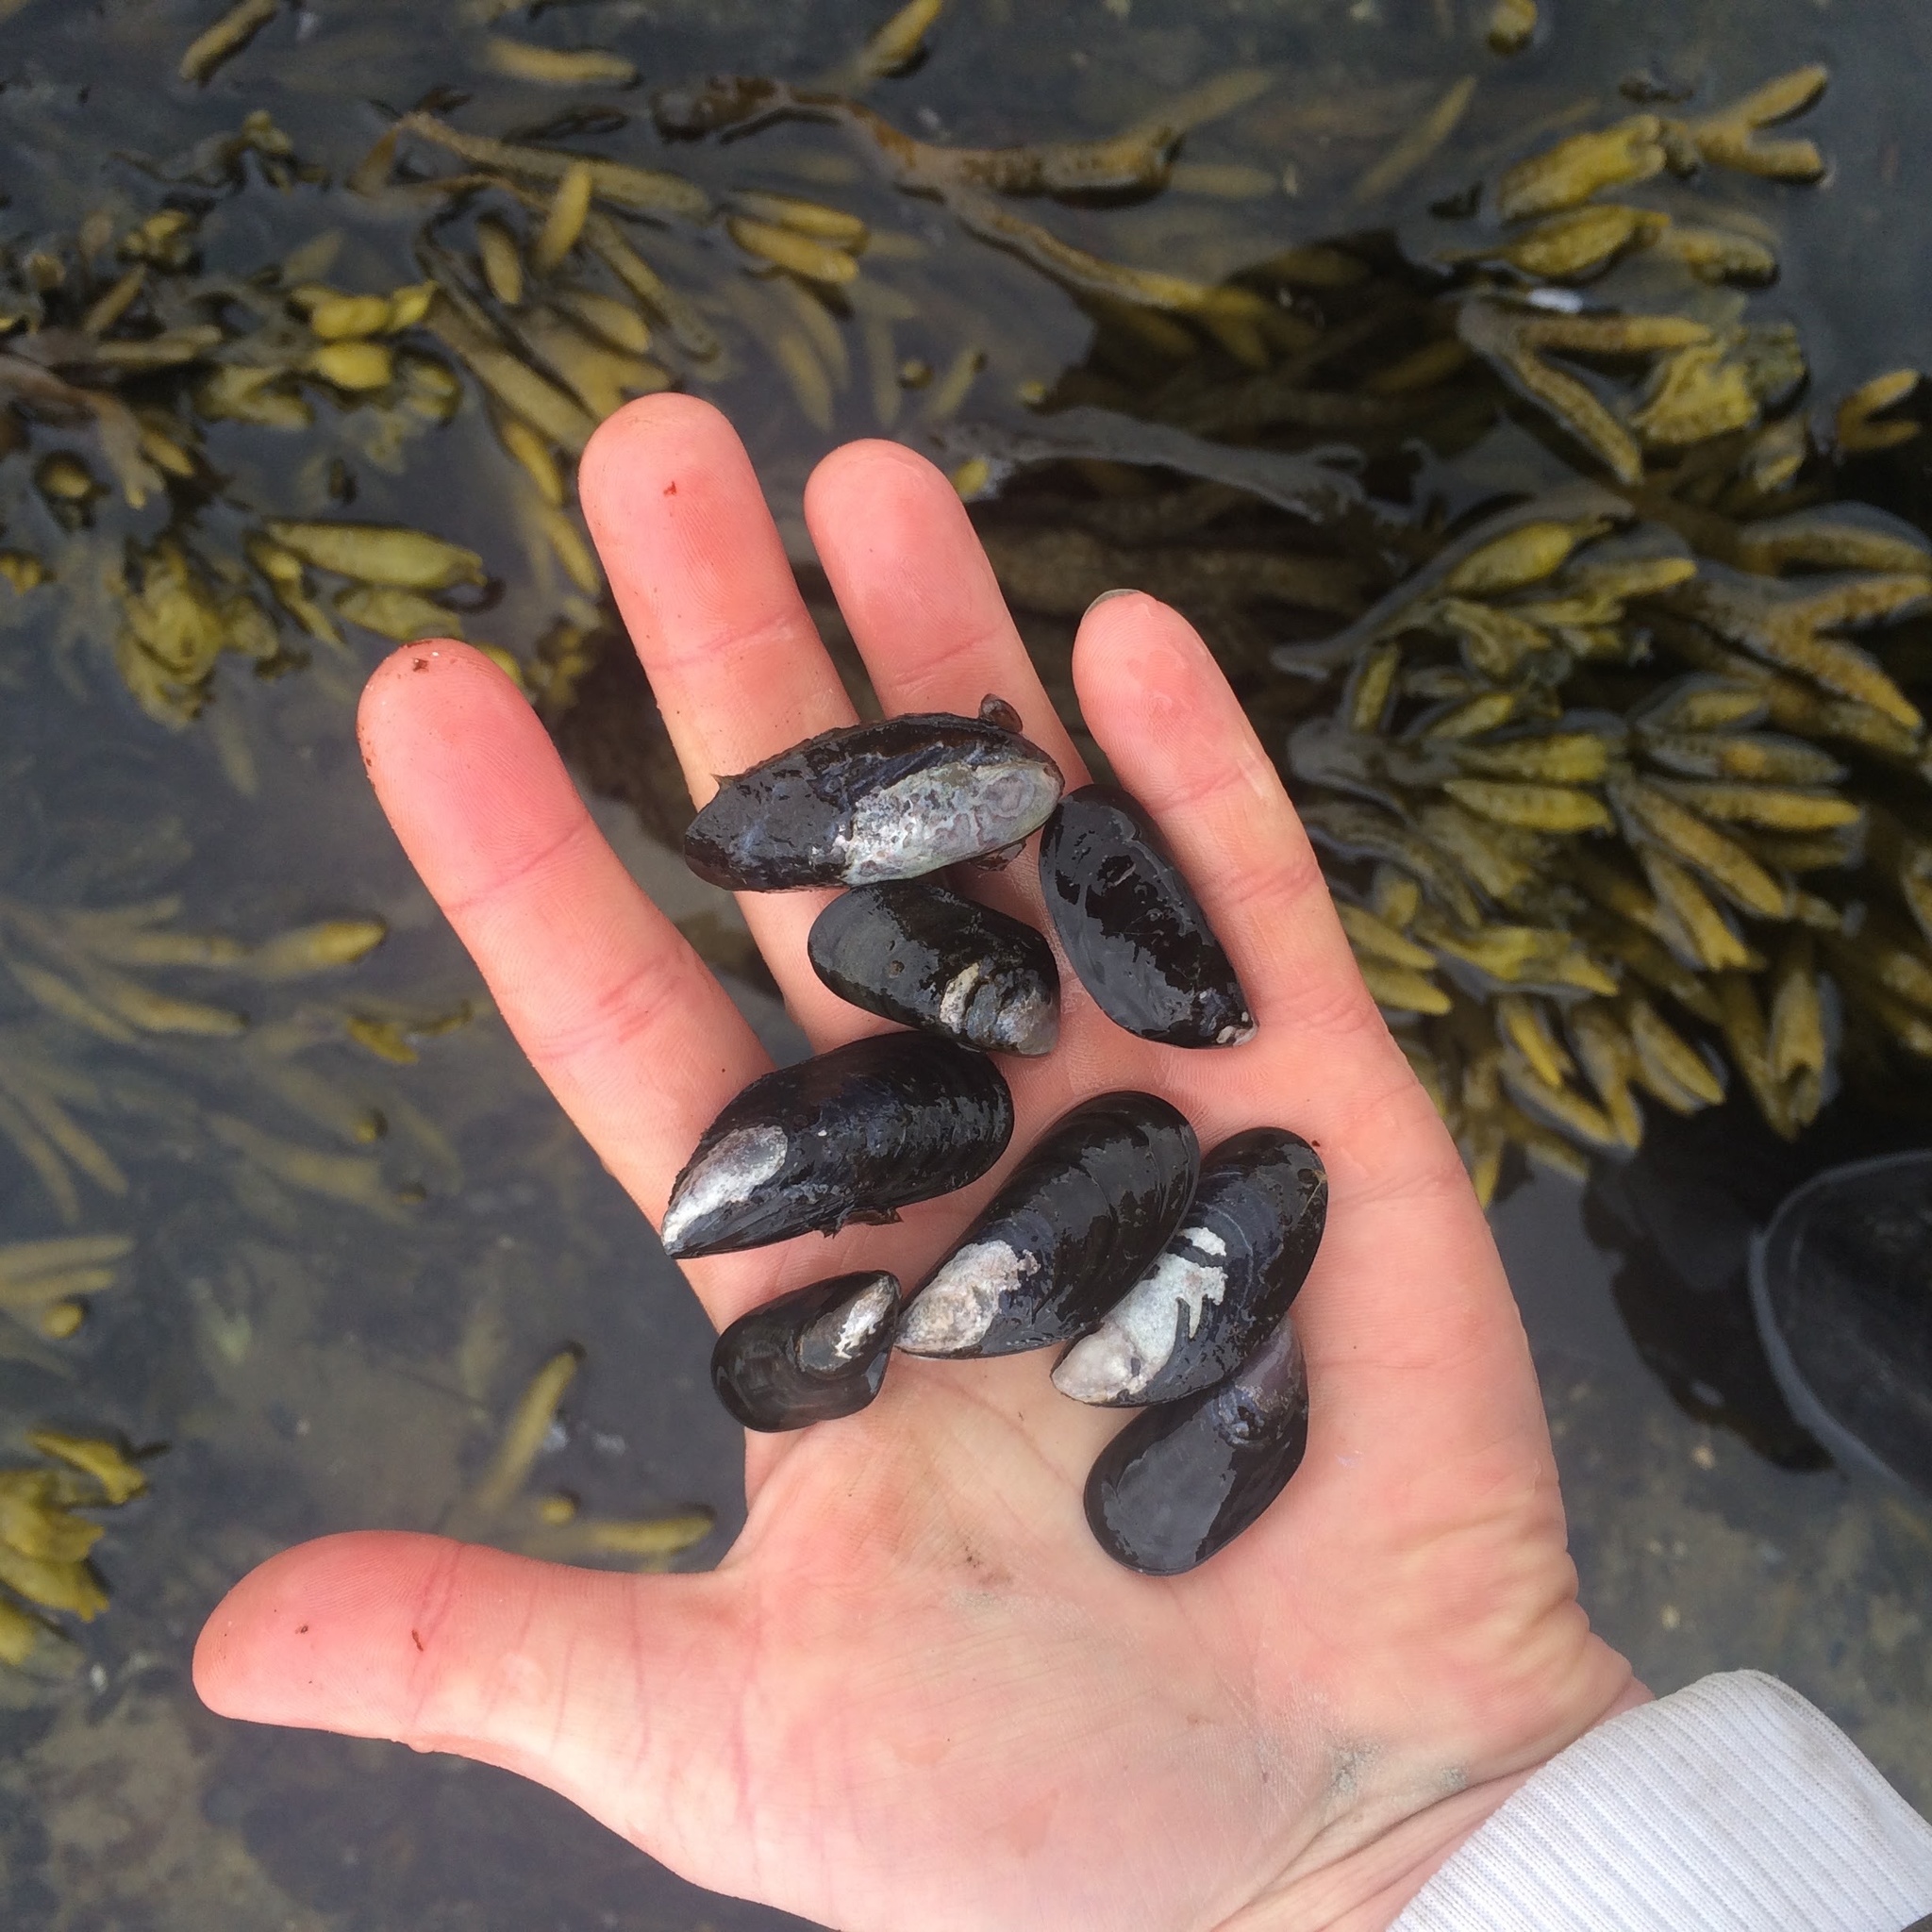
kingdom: Animalia
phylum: Mollusca
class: Bivalvia
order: Mytilida
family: Mytilidae
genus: Mytilus
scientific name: Mytilus edulis
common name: Blue mussel
